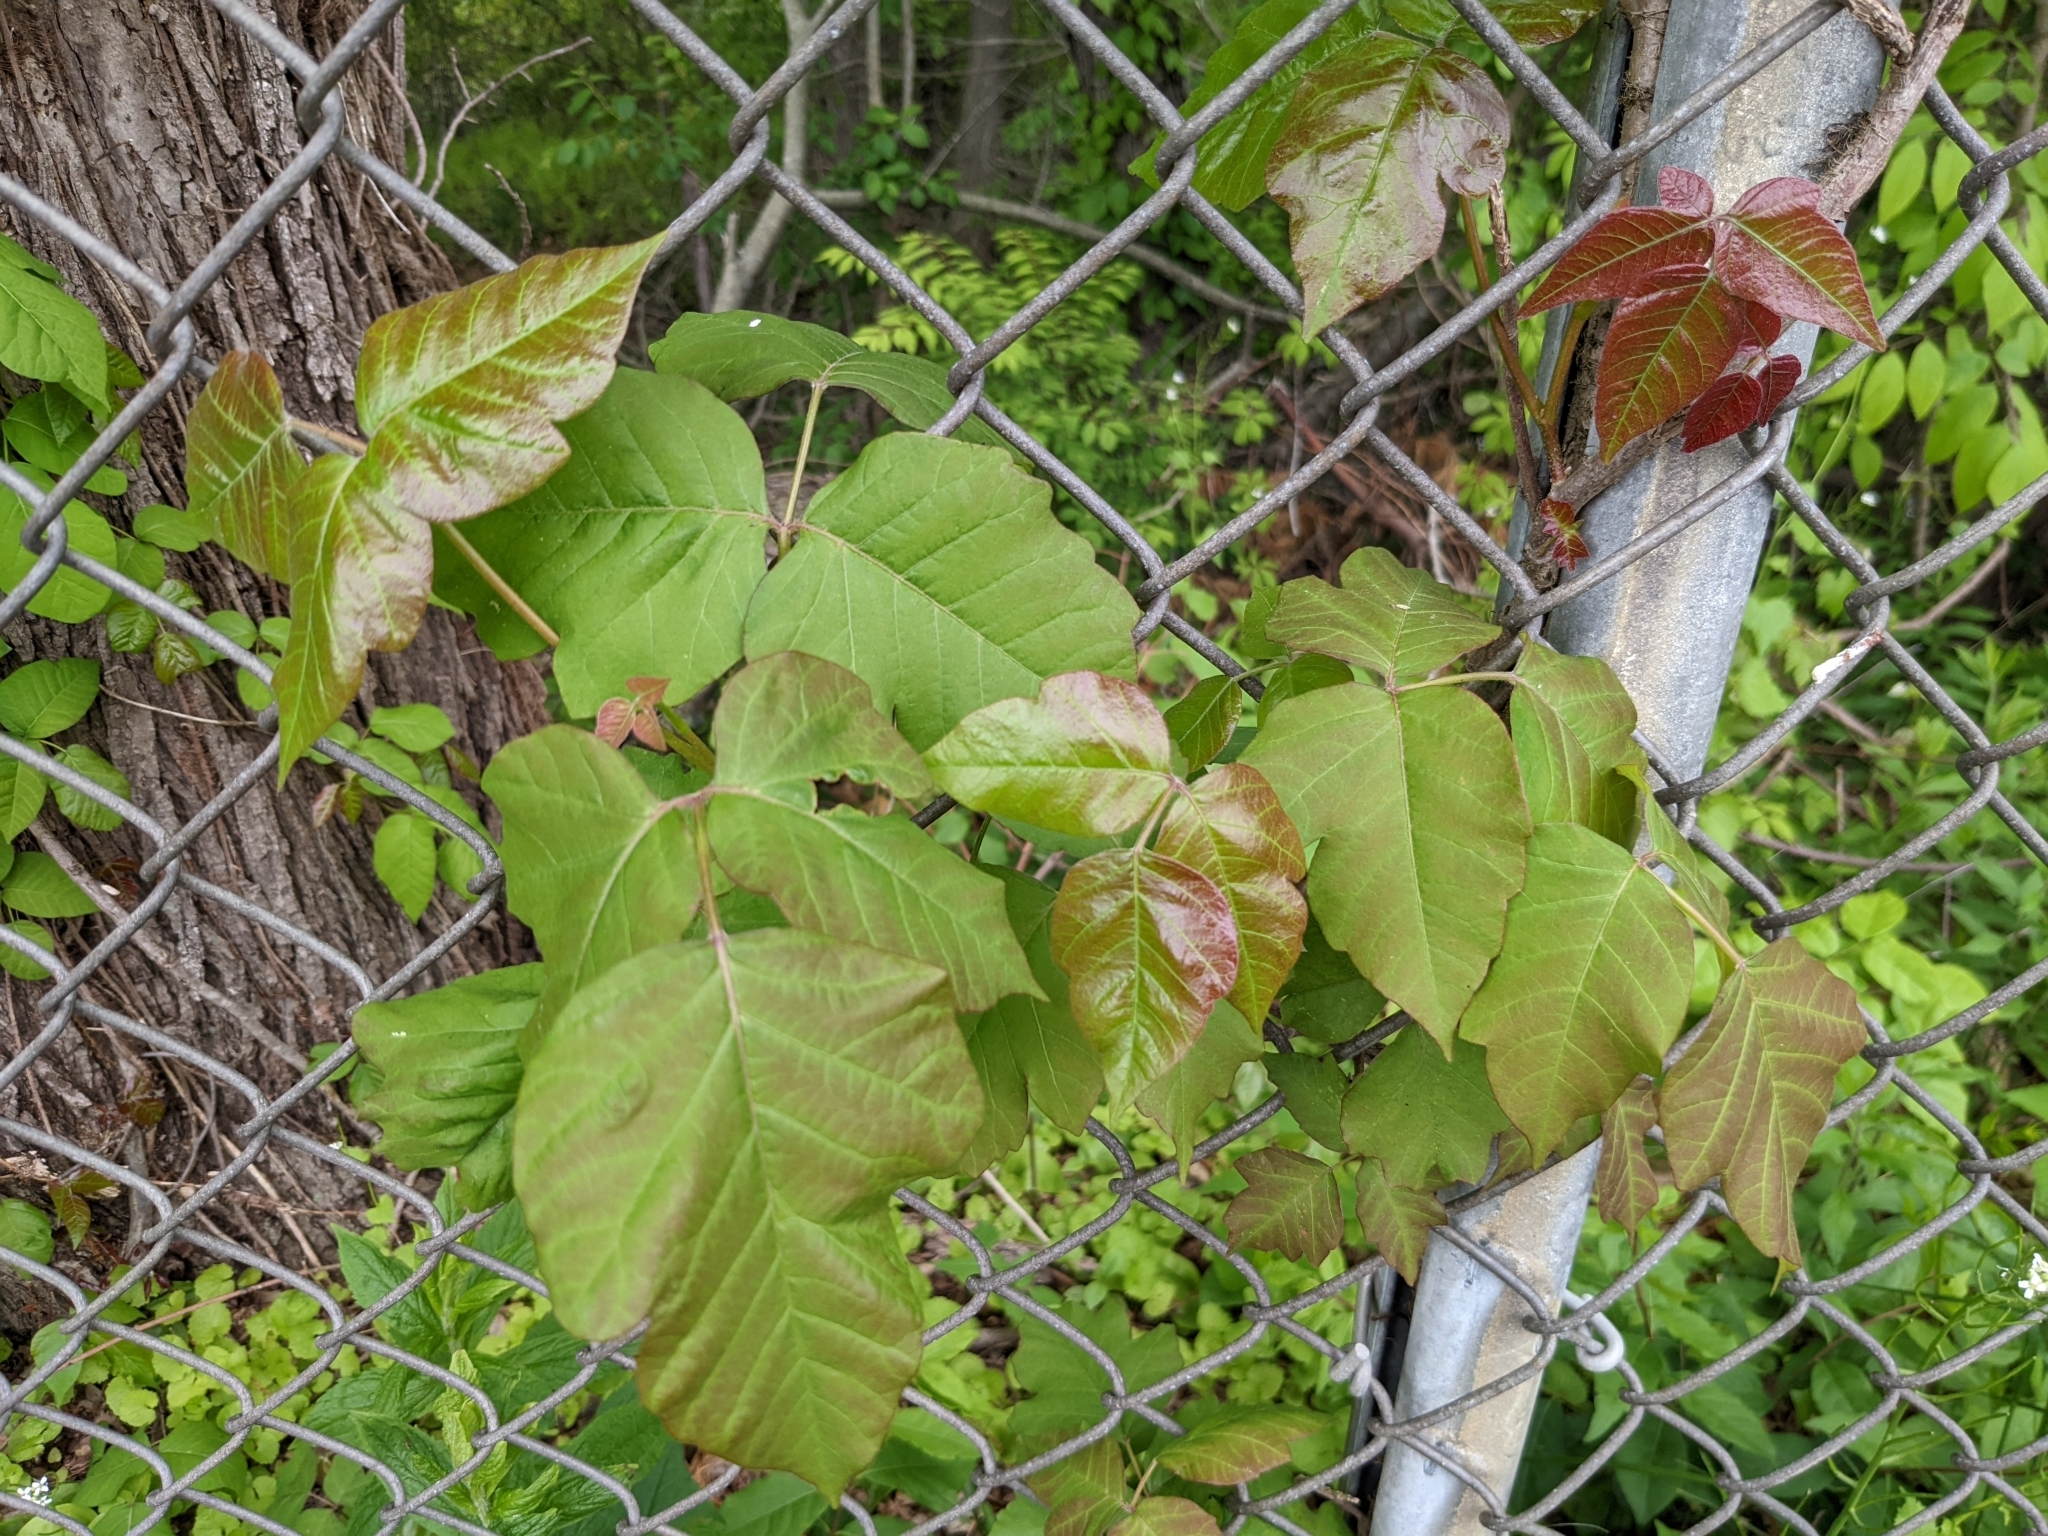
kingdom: Plantae
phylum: Tracheophyta
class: Magnoliopsida
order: Sapindales
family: Anacardiaceae
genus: Toxicodendron
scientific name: Toxicodendron radicans
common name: Poison ivy
